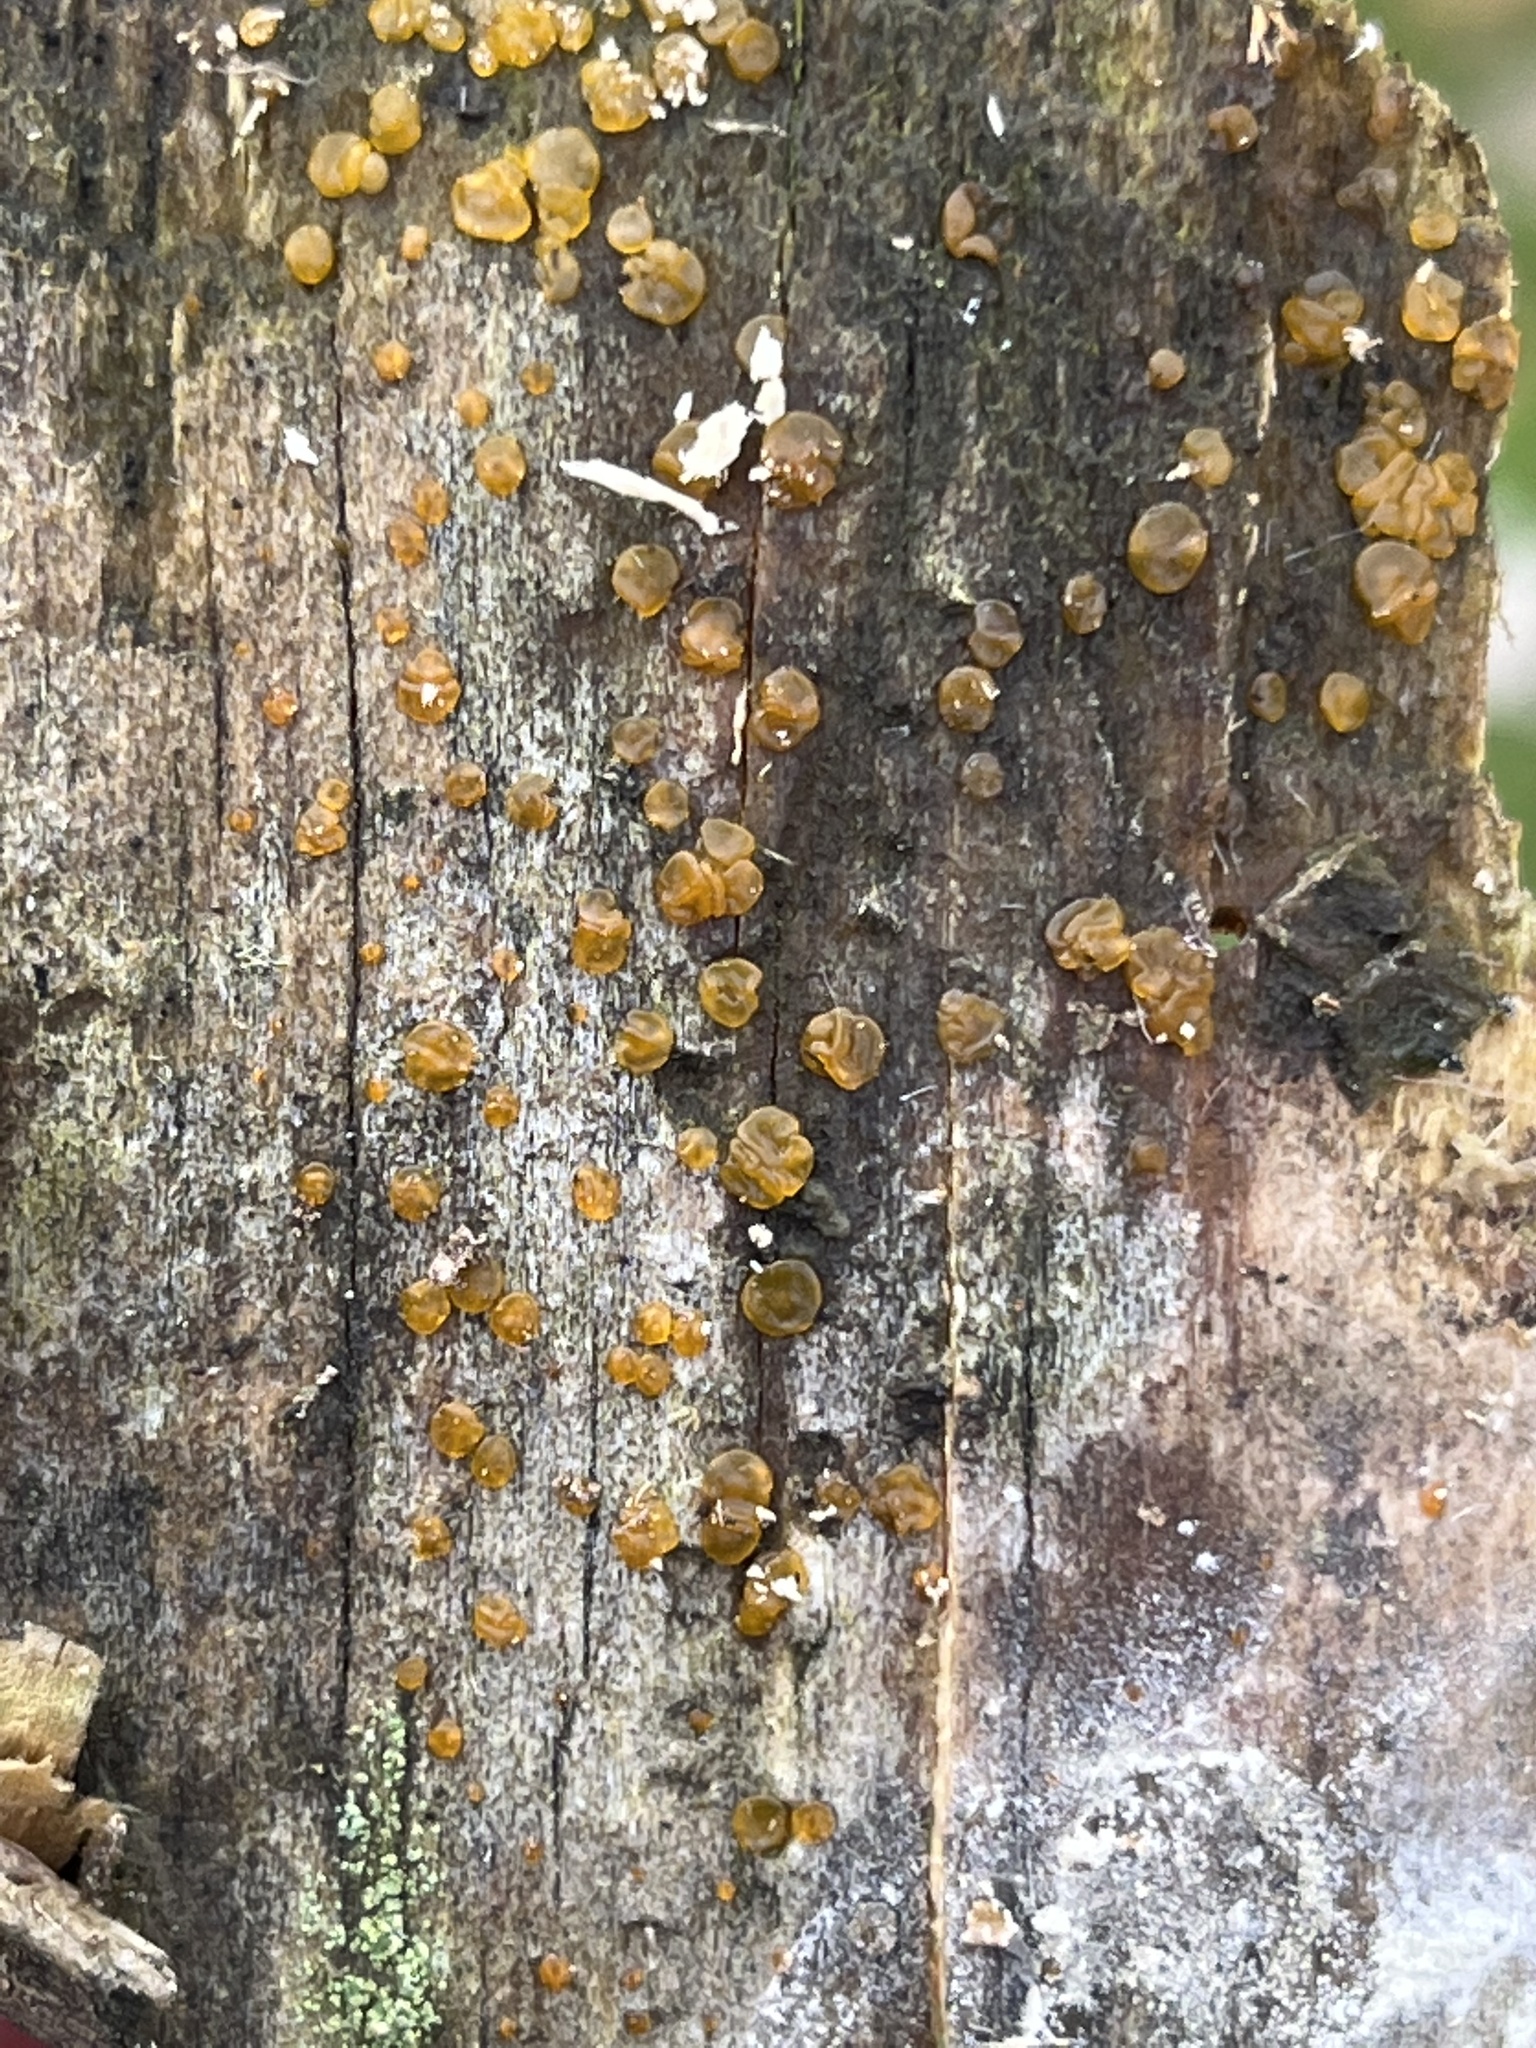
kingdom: Fungi
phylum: Basidiomycota
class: Dacrymycetes
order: Dacrymycetales
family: Dacrymycetaceae
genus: Dacrymyces
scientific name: Dacrymyces stillatus
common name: Common jelly spot
